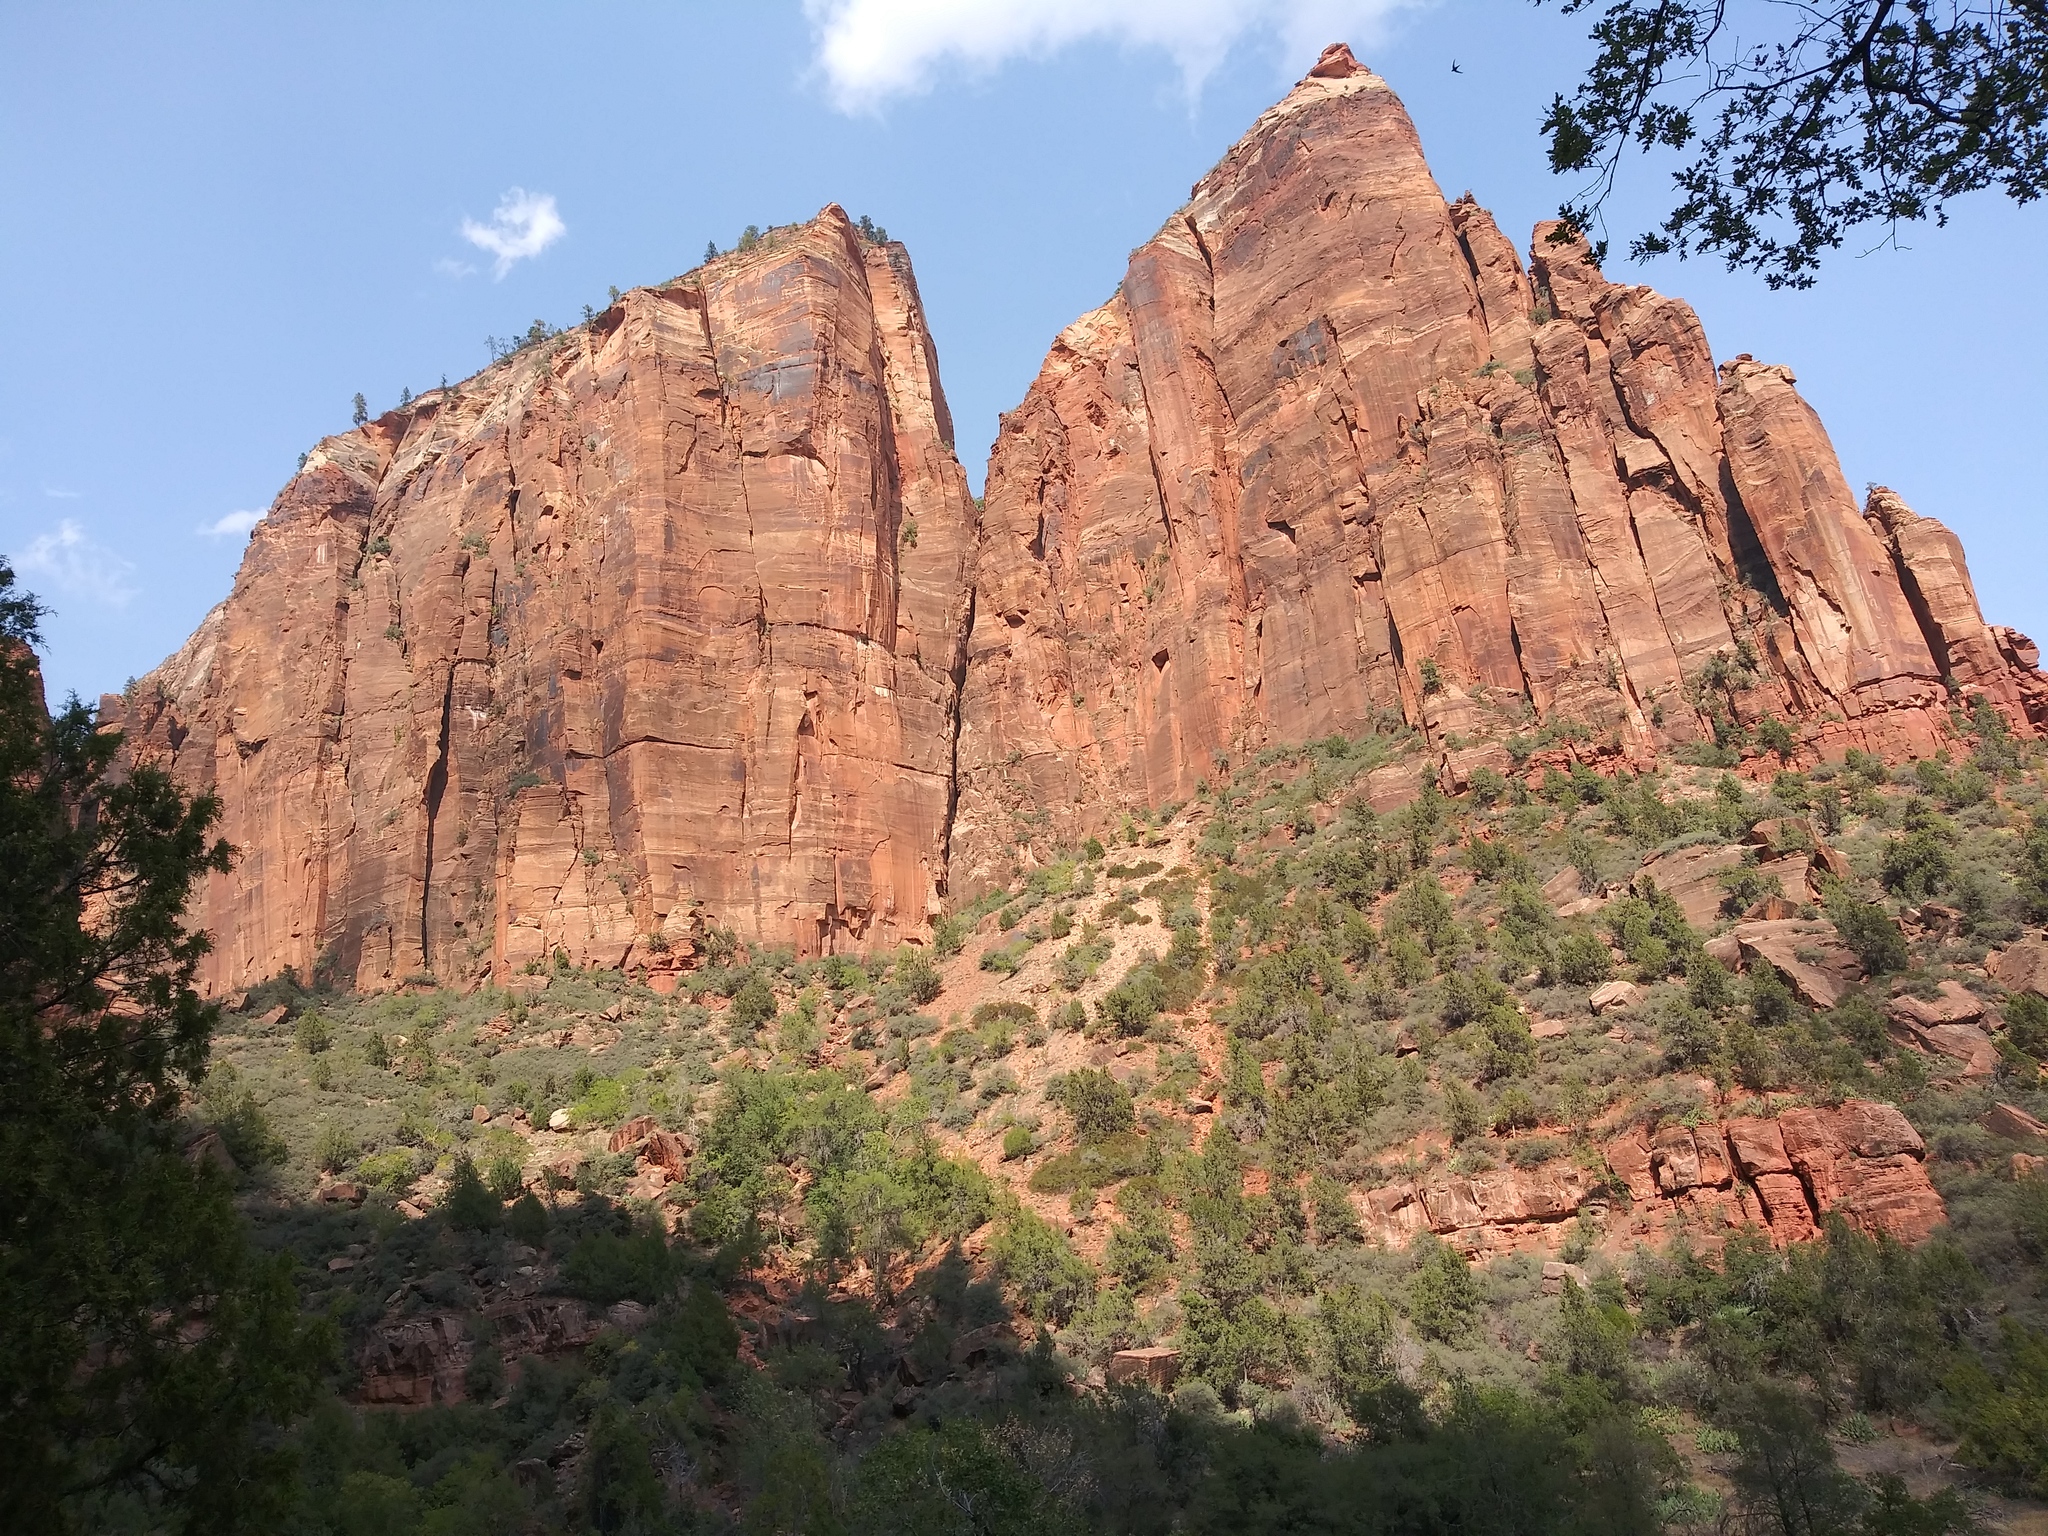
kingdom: Animalia
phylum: Chordata
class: Aves
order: Apodiformes
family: Apodidae
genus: Aeronautes
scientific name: Aeronautes saxatalis
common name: White-throated swift
